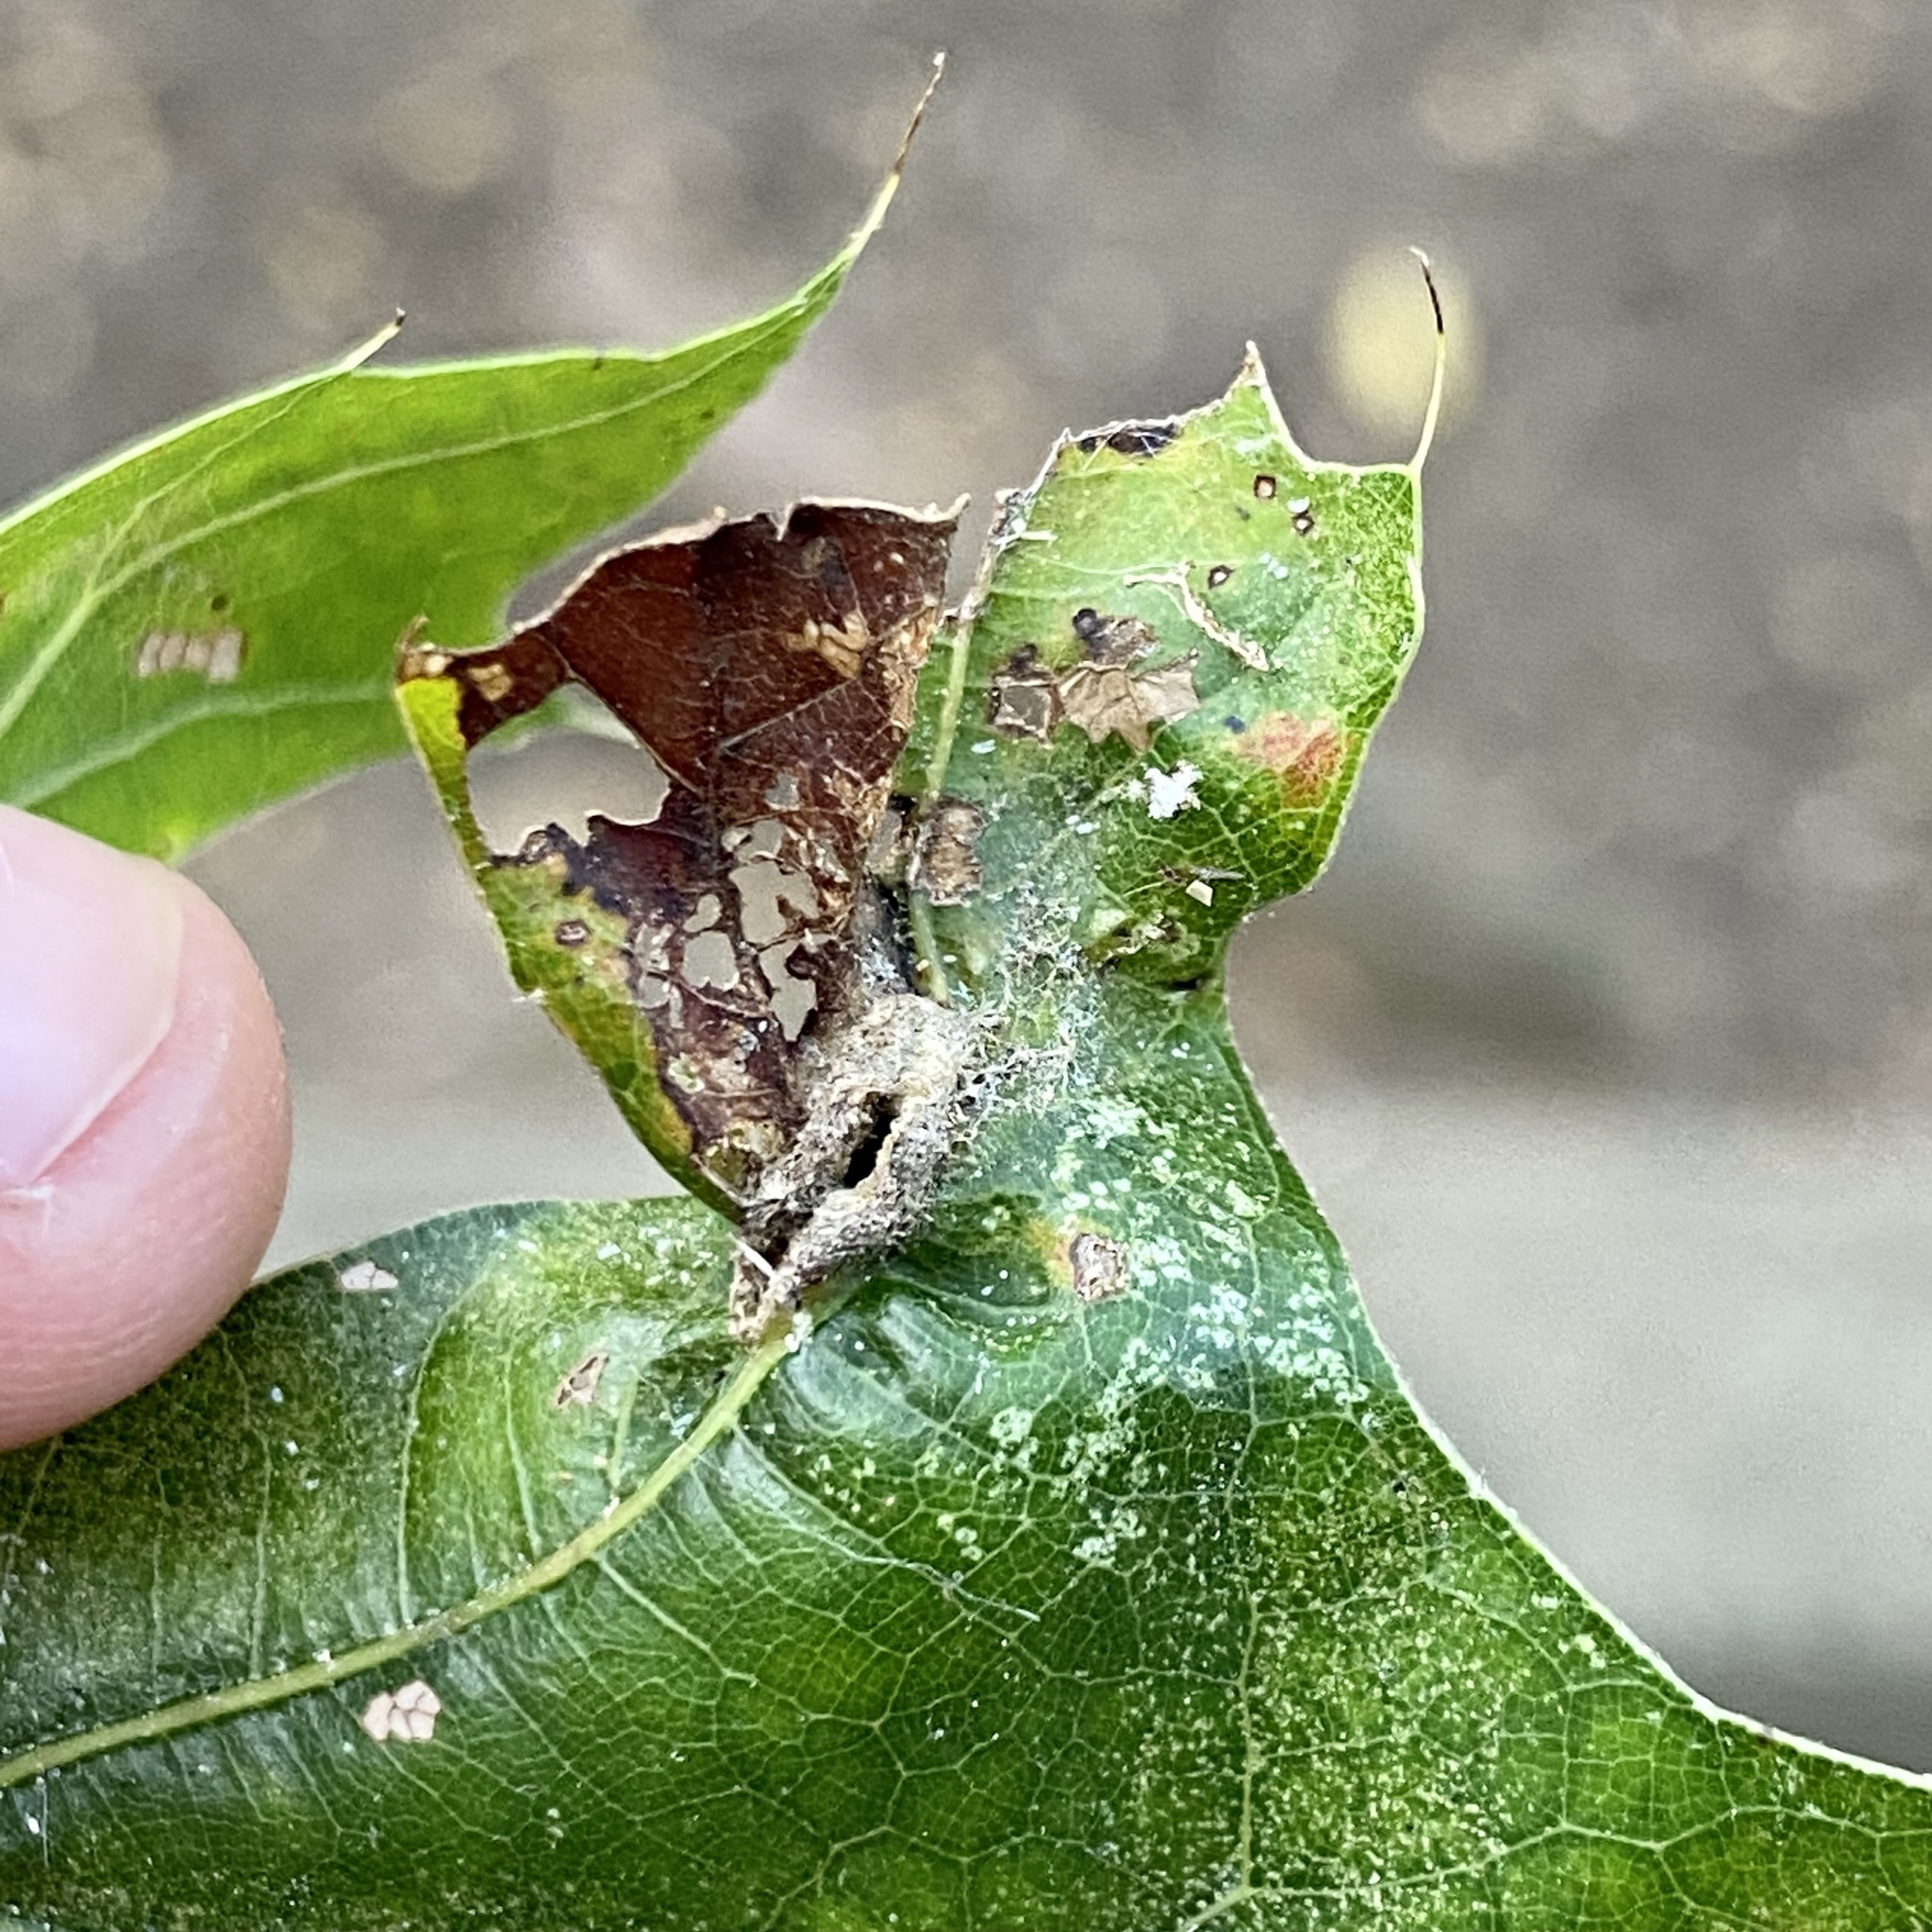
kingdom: Animalia
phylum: Arthropoda
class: Insecta
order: Diptera
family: Cecidomyiidae
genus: Macrodiplosis
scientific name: Macrodiplosis niveipila
